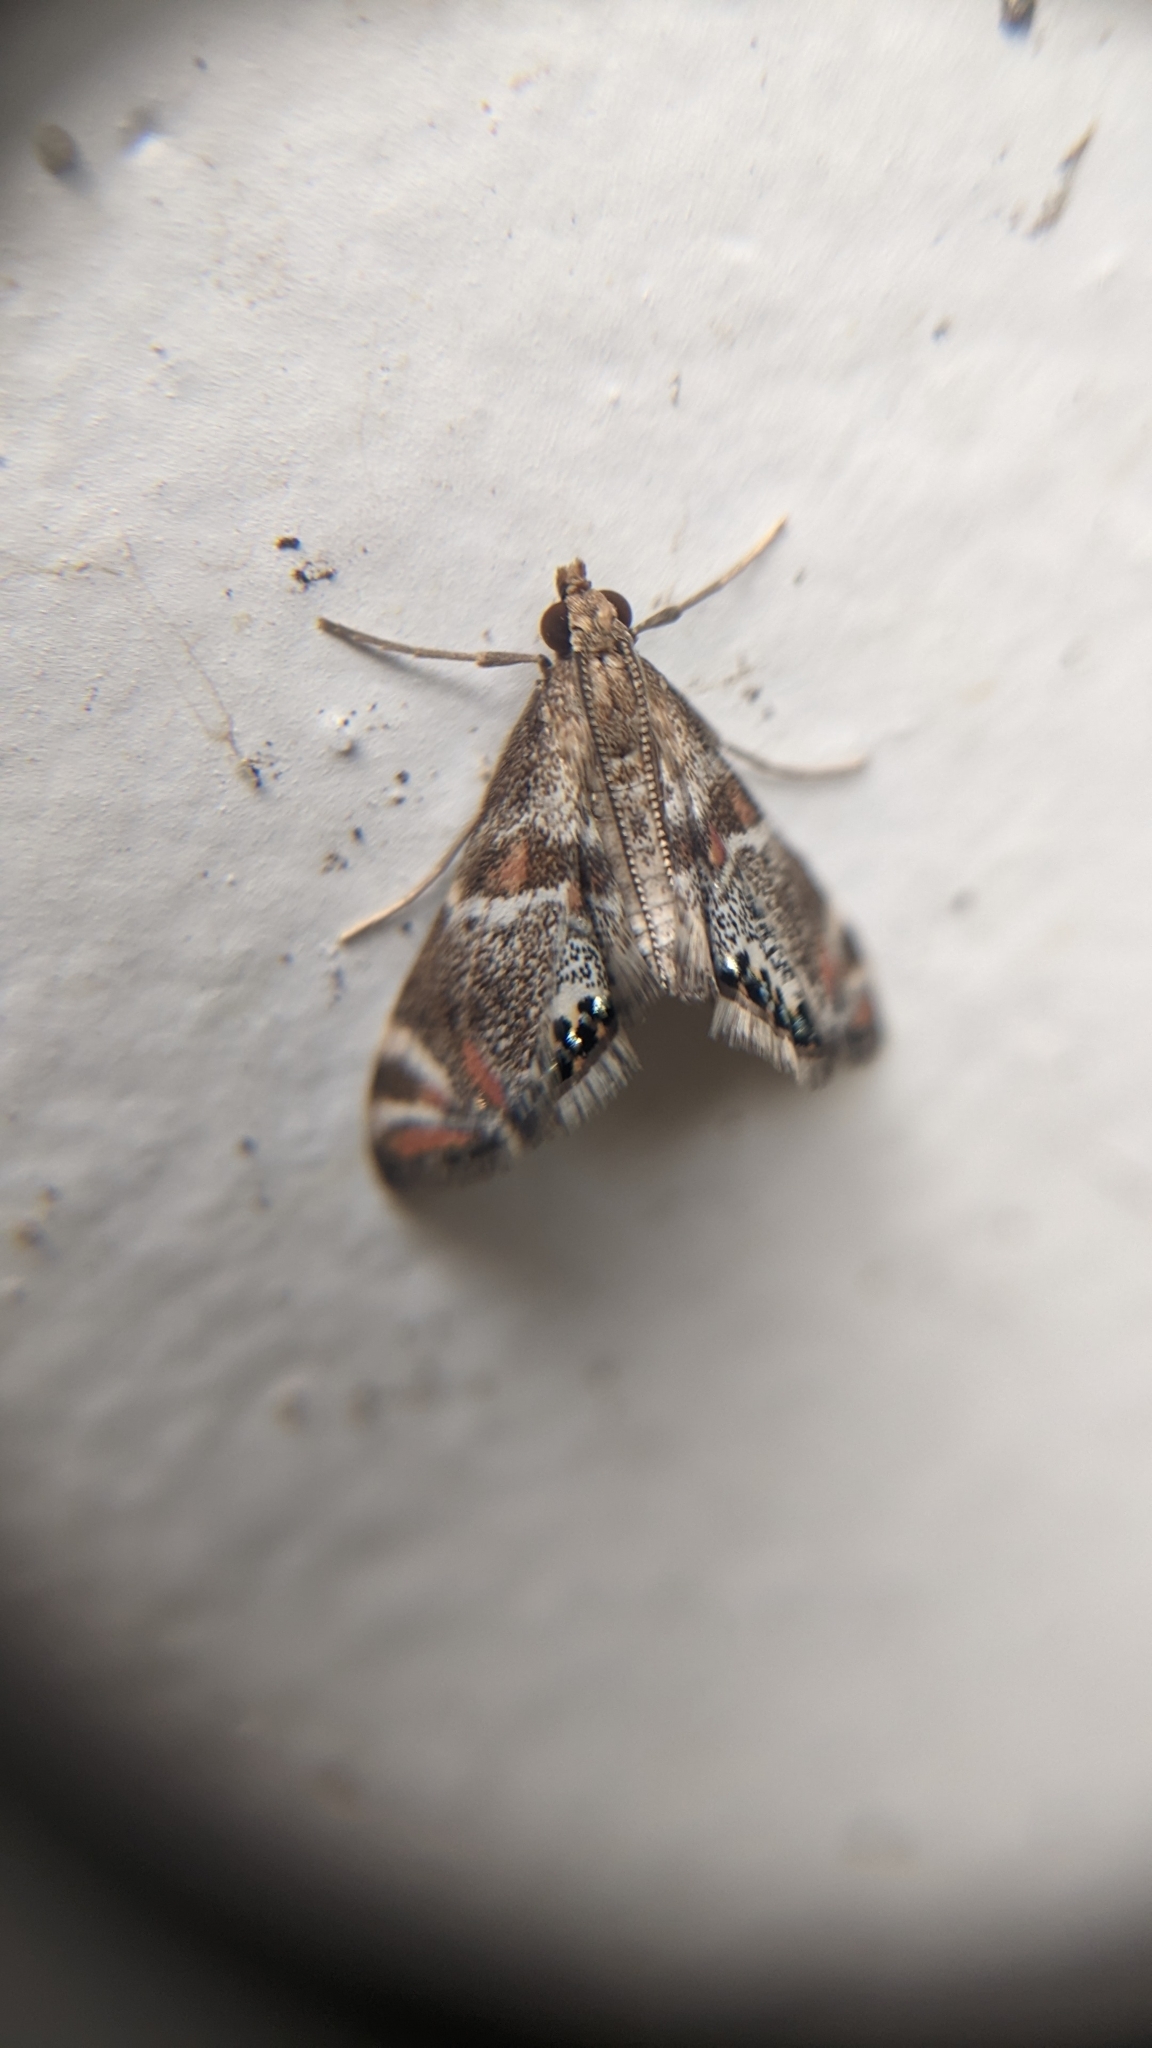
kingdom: Animalia
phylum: Arthropoda
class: Insecta
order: Lepidoptera
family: Crambidae
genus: Petrophila
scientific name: Petrophila jaliscalis
